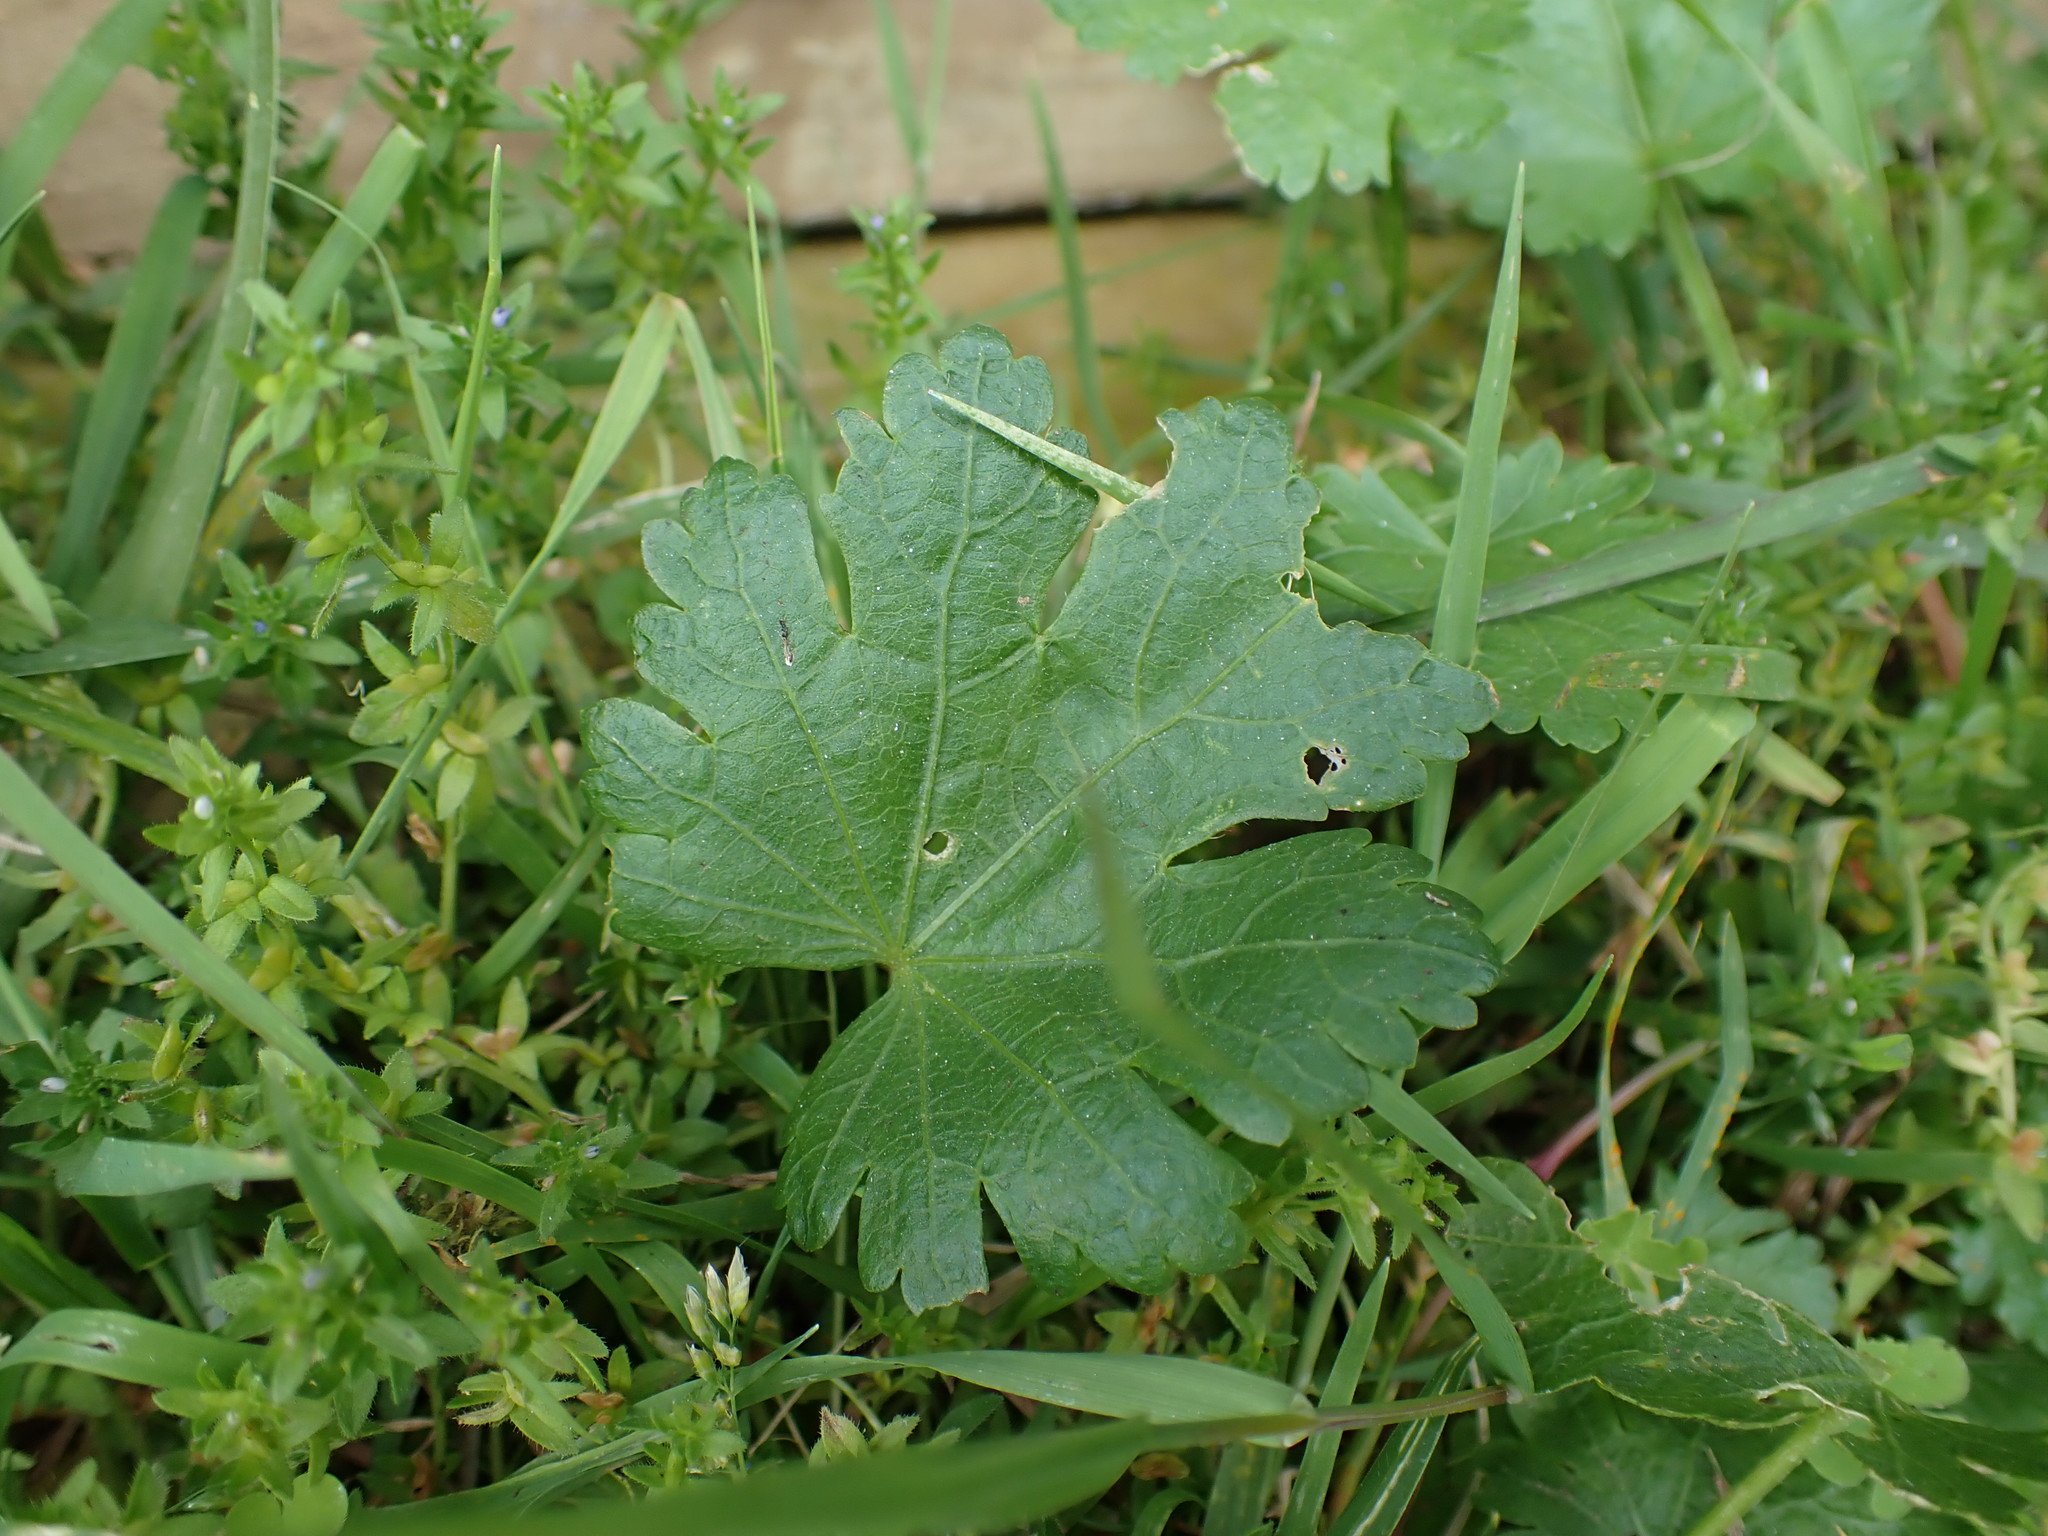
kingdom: Plantae
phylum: Tracheophyta
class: Magnoliopsida
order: Malvales
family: Malvaceae
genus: Modiola
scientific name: Modiola caroliniana
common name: Carolina bristlemallow
